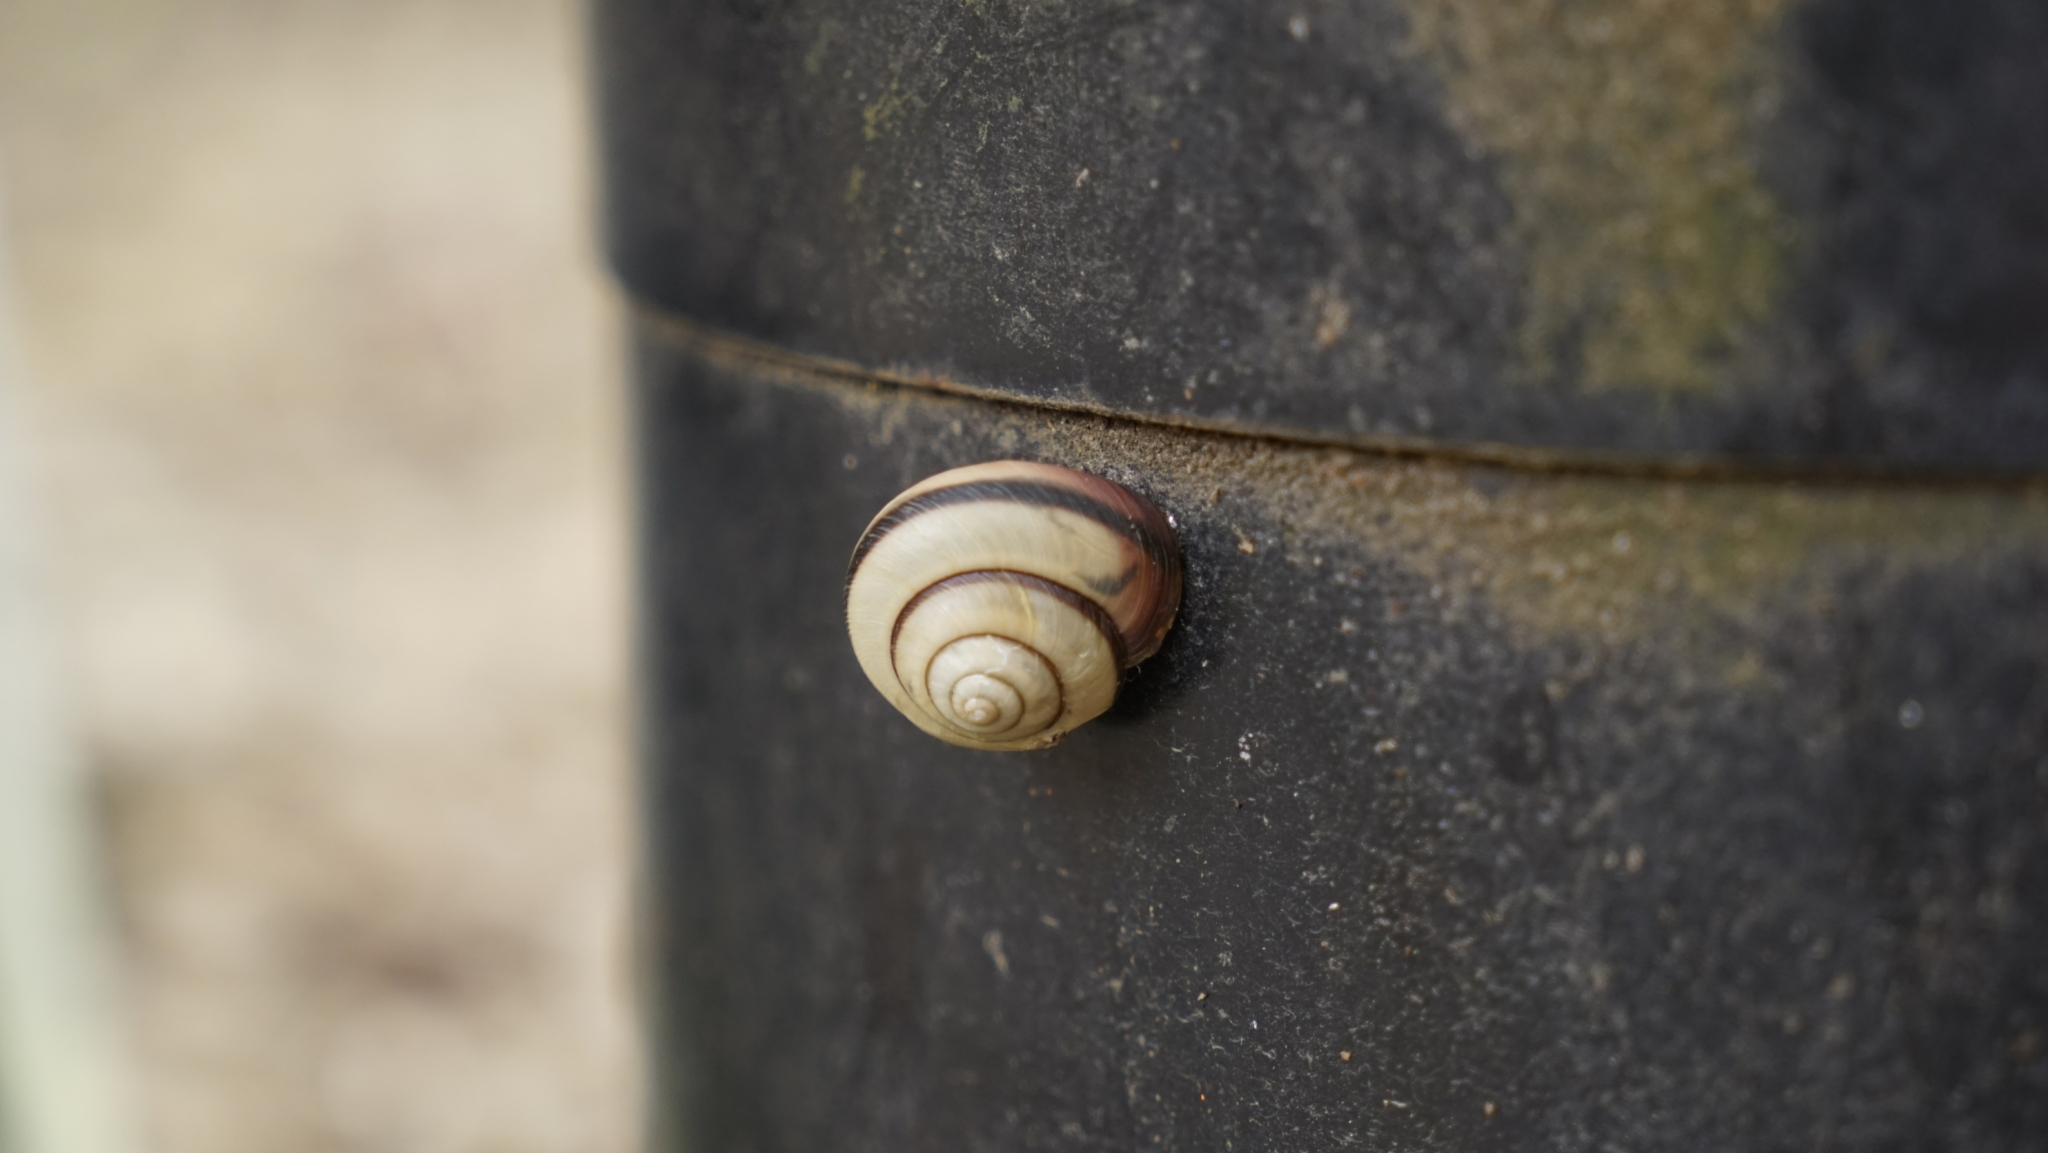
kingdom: Animalia
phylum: Mollusca
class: Gastropoda
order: Stylommatophora
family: Camaenidae
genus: Euhadra
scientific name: Euhadra amaliae
